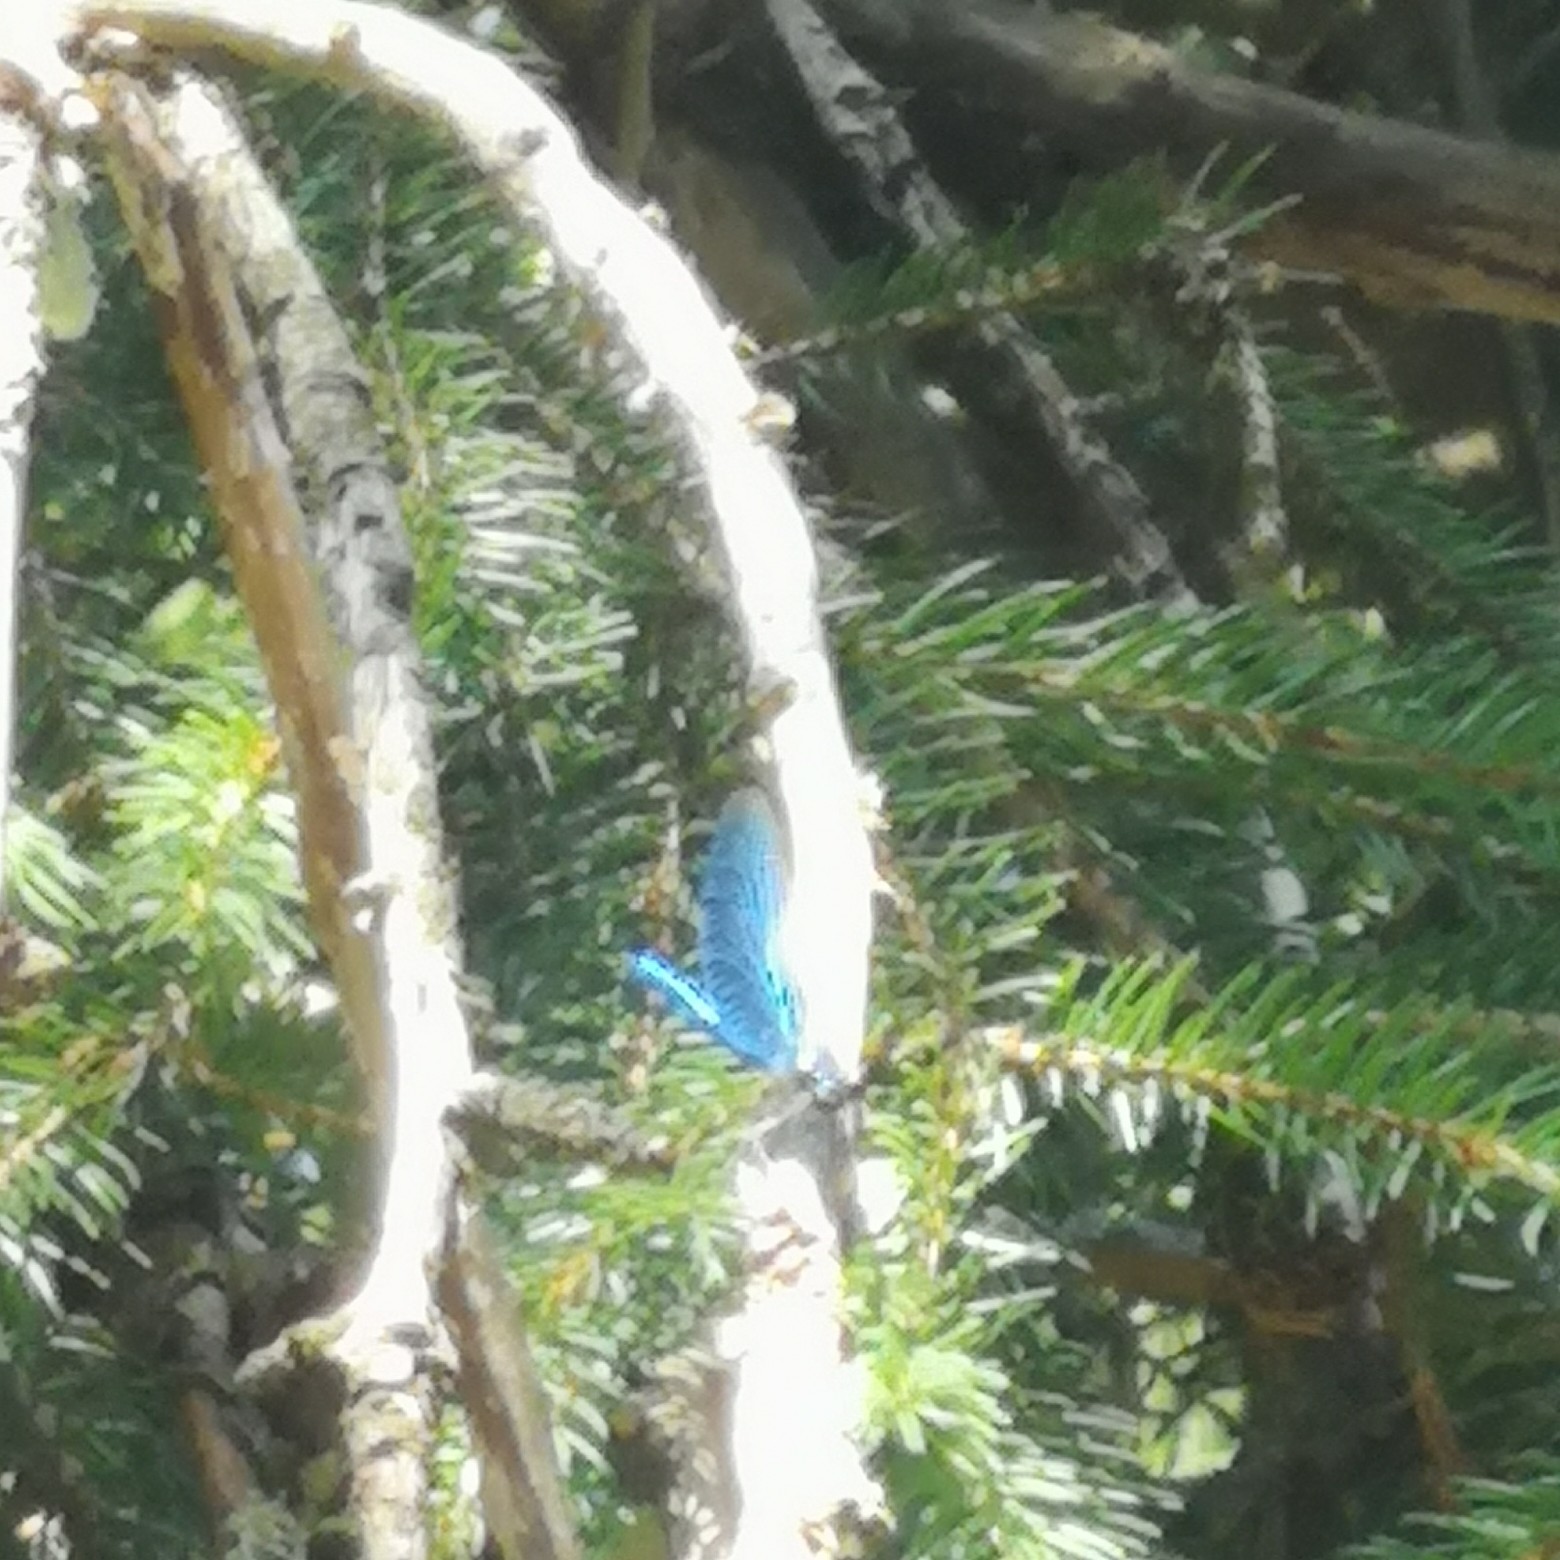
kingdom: Animalia
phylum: Arthropoda
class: Insecta
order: Odonata
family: Calopterygidae
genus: Calopteryx
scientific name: Calopteryx virgo
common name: Beautiful demoiselle
